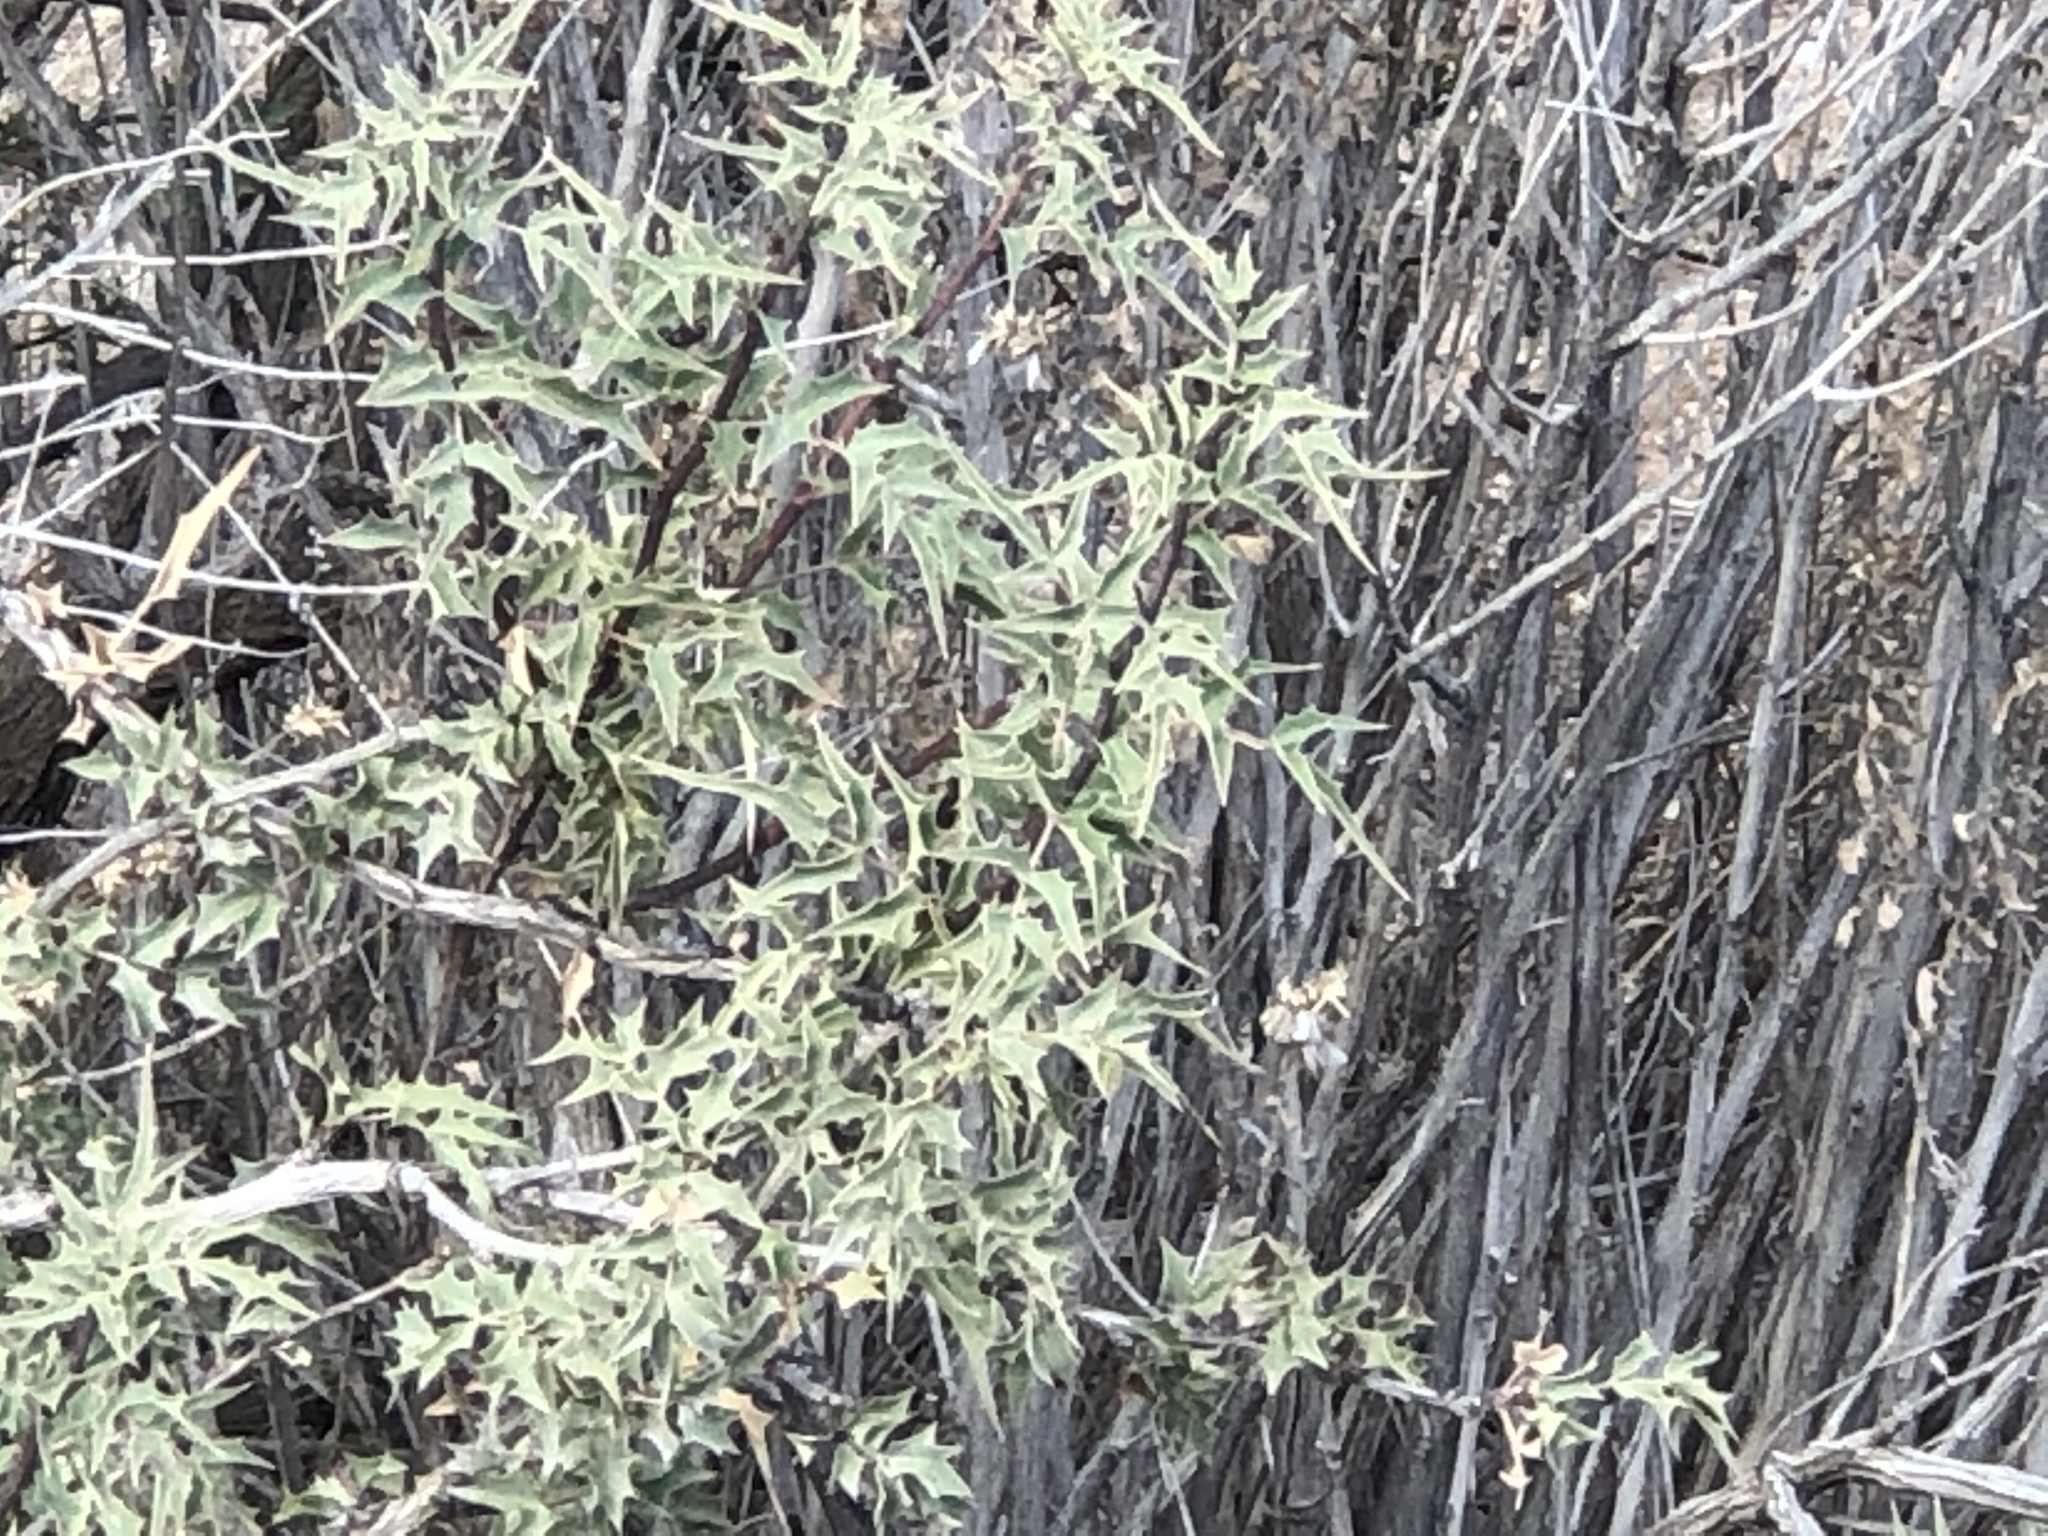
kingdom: Plantae
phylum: Tracheophyta
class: Magnoliopsida
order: Ranunculales
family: Berberidaceae
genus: Alloberberis
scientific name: Alloberberis haematocarpa
